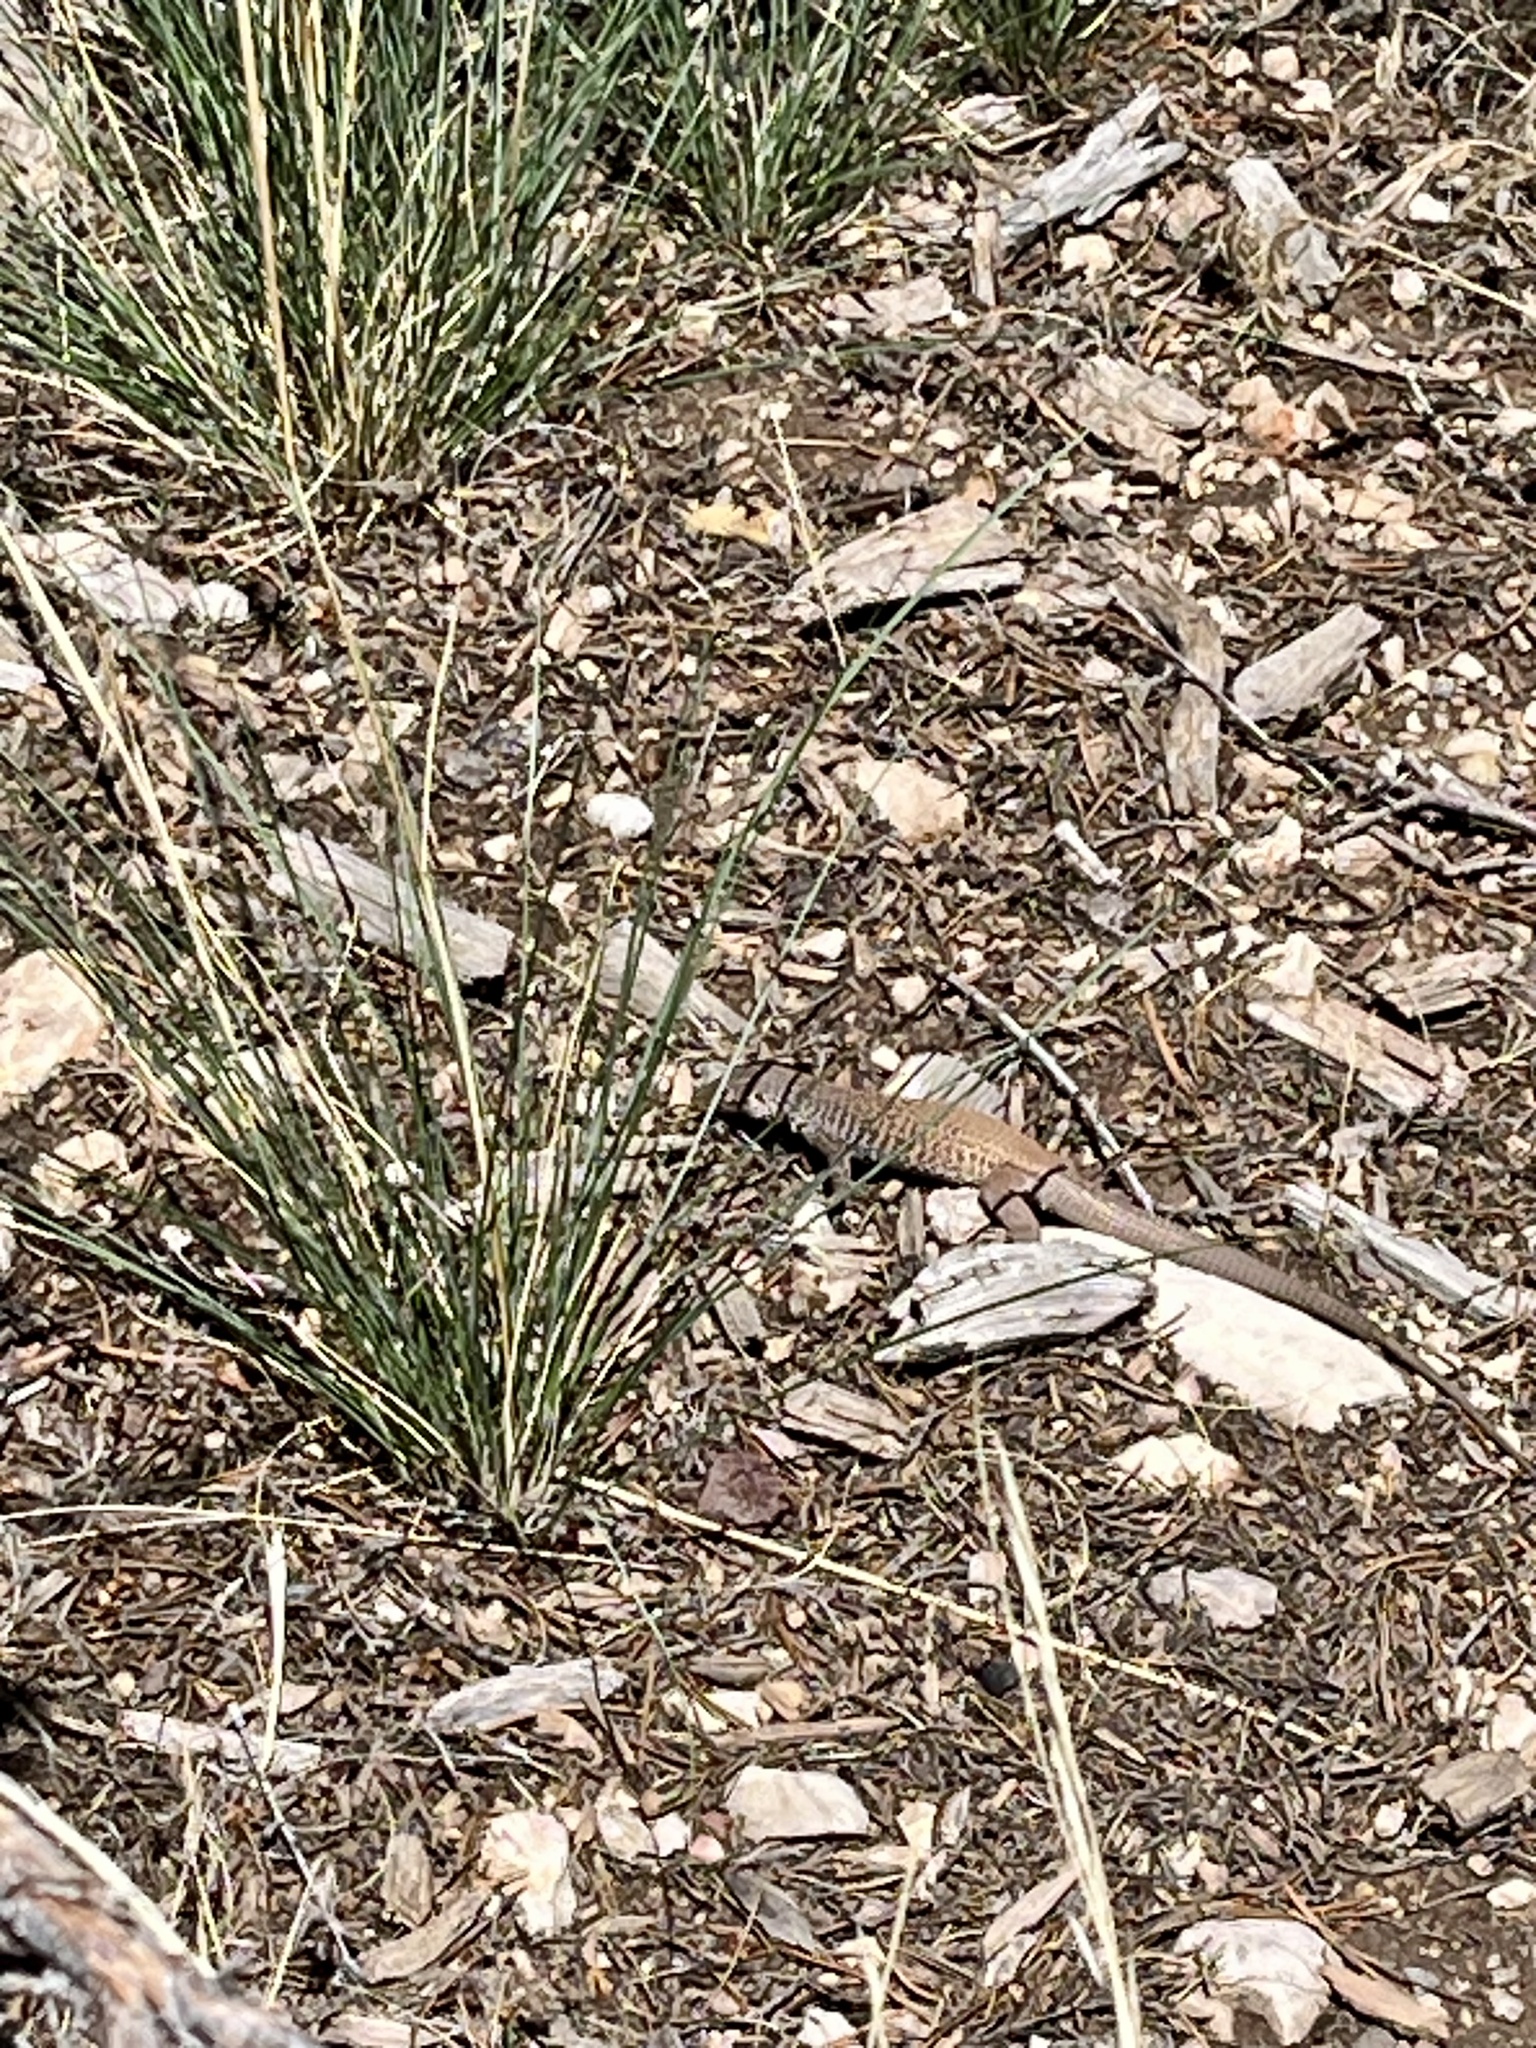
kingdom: Animalia
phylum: Chordata
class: Squamata
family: Teiidae
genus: Aspidoscelis
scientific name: Aspidoscelis tigris
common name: Tiger whiptail
